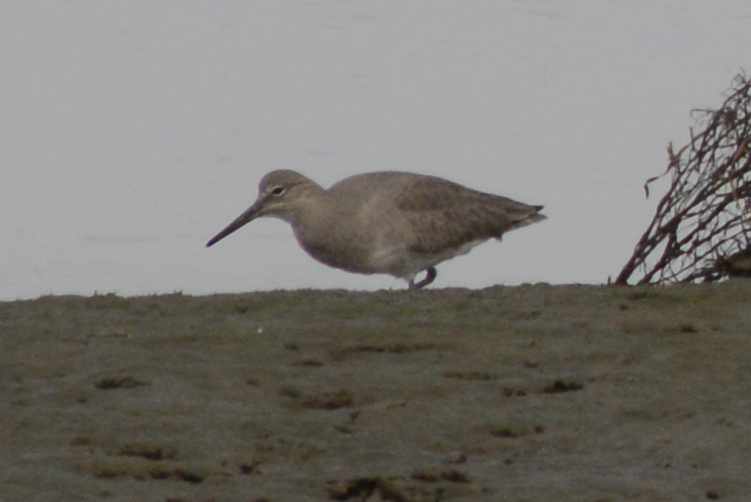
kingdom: Animalia
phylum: Chordata
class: Aves
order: Charadriiformes
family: Scolopacidae
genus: Tringa
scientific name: Tringa semipalmata
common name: Willet
